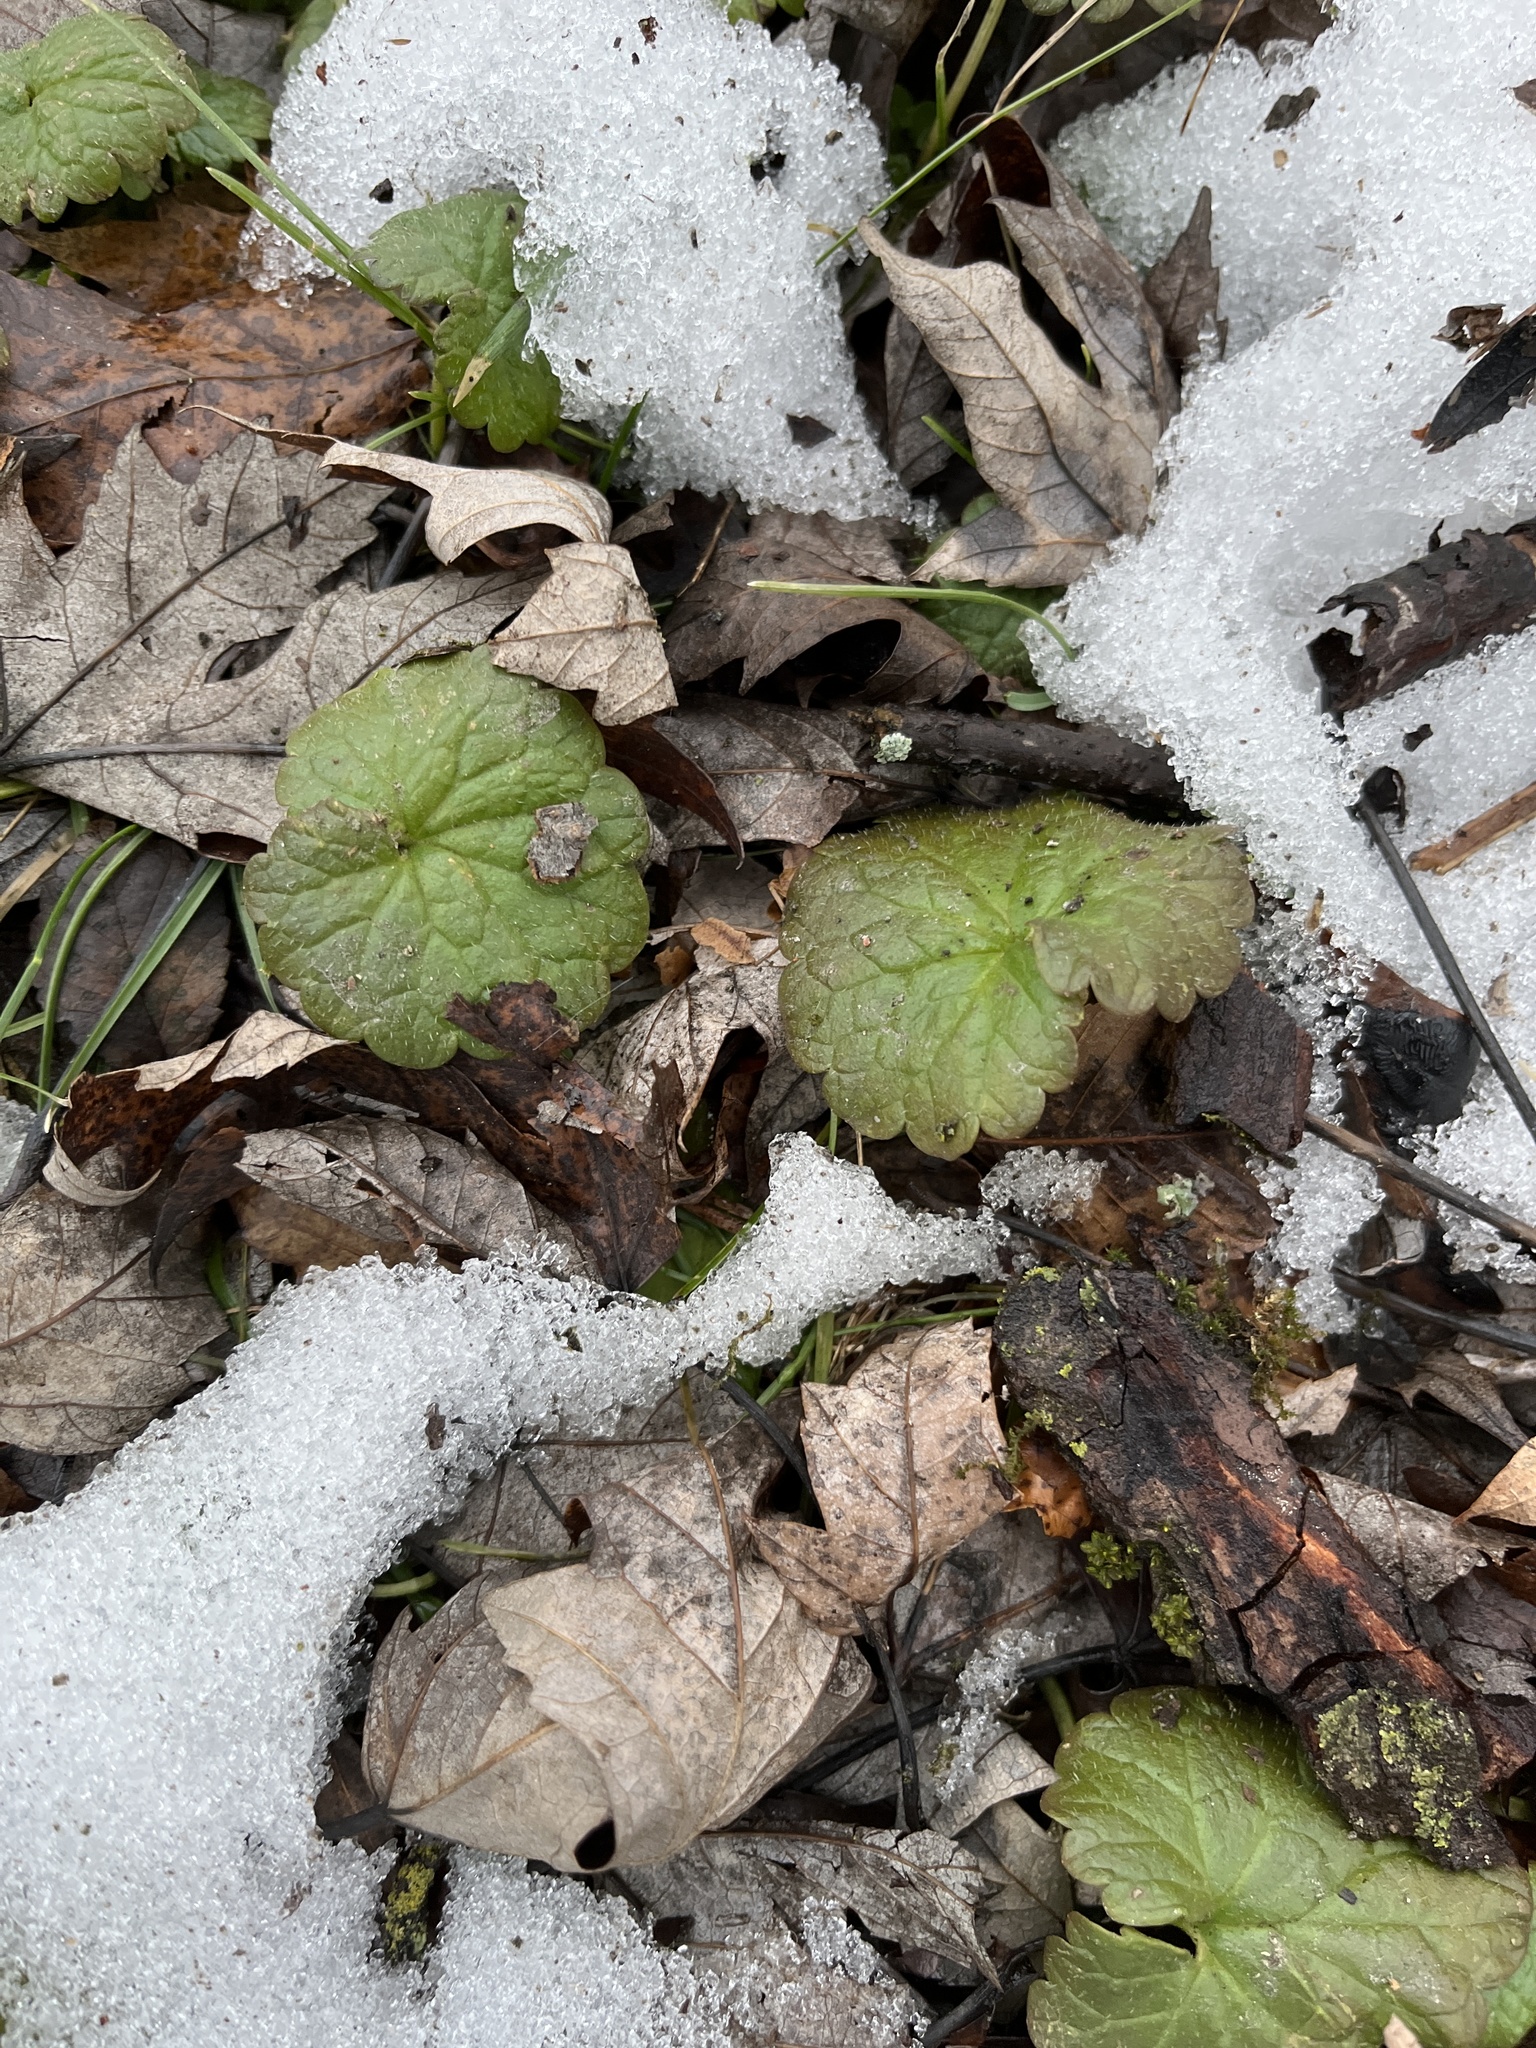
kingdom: Plantae
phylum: Tracheophyta
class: Magnoliopsida
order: Lamiales
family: Lamiaceae
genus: Glechoma
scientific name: Glechoma hederacea
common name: Ground ivy
